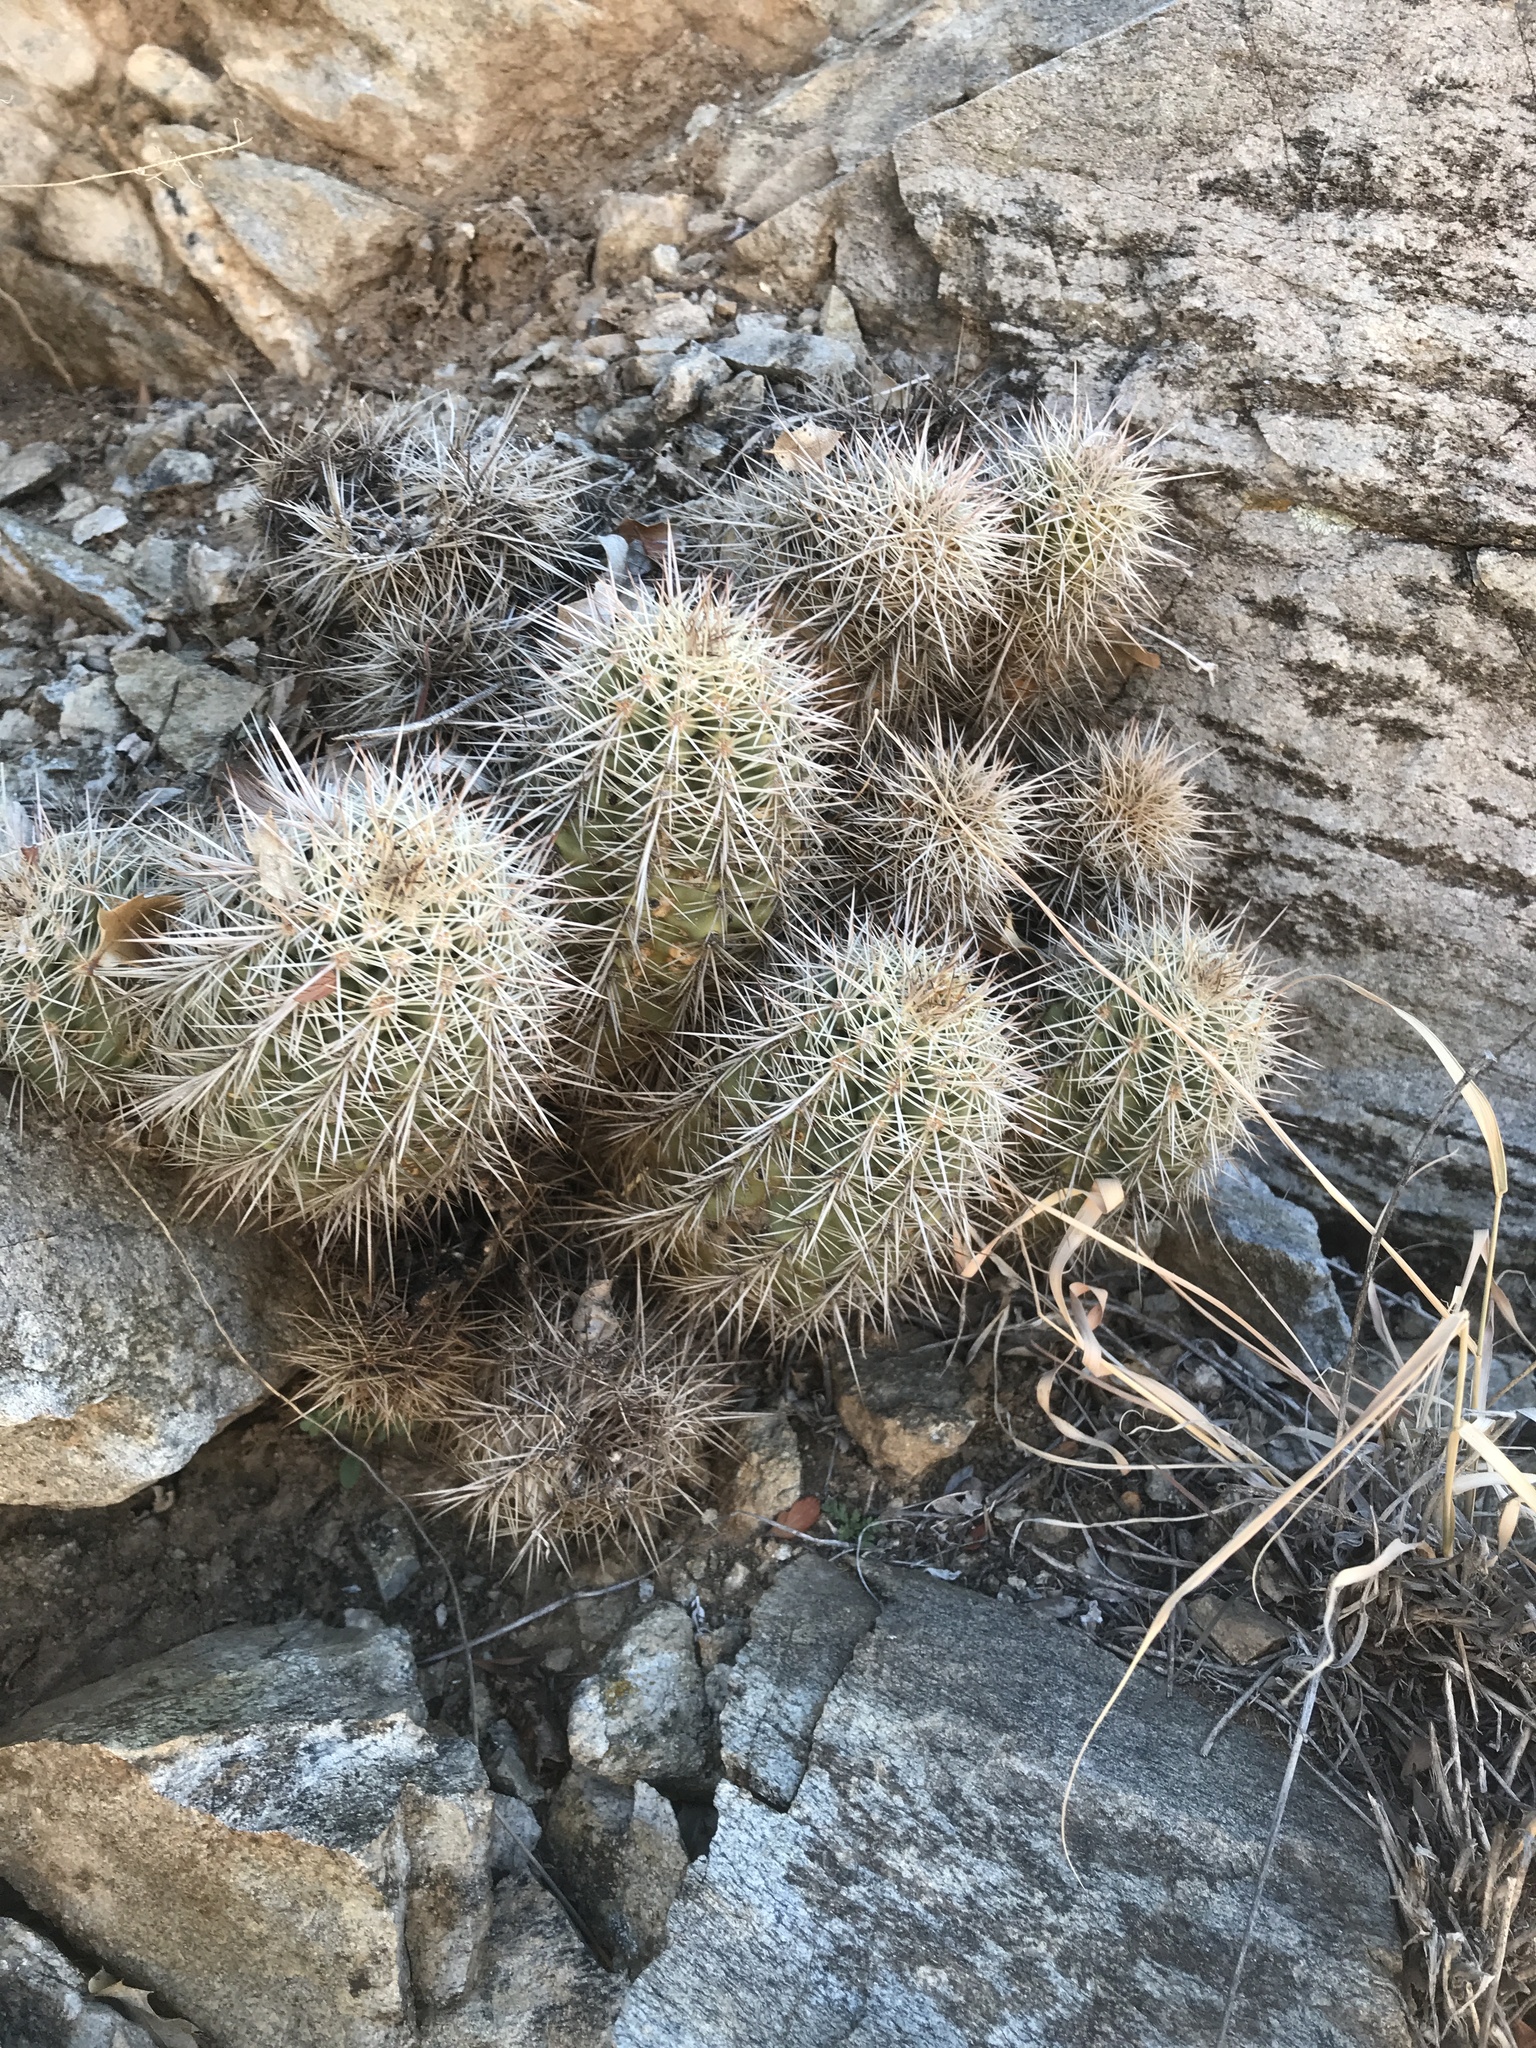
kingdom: Plantae
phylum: Tracheophyta
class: Magnoliopsida
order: Caryophyllales
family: Cactaceae
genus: Echinocereus
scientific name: Echinocereus coccineus
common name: Scarlet hedgehog cactus
